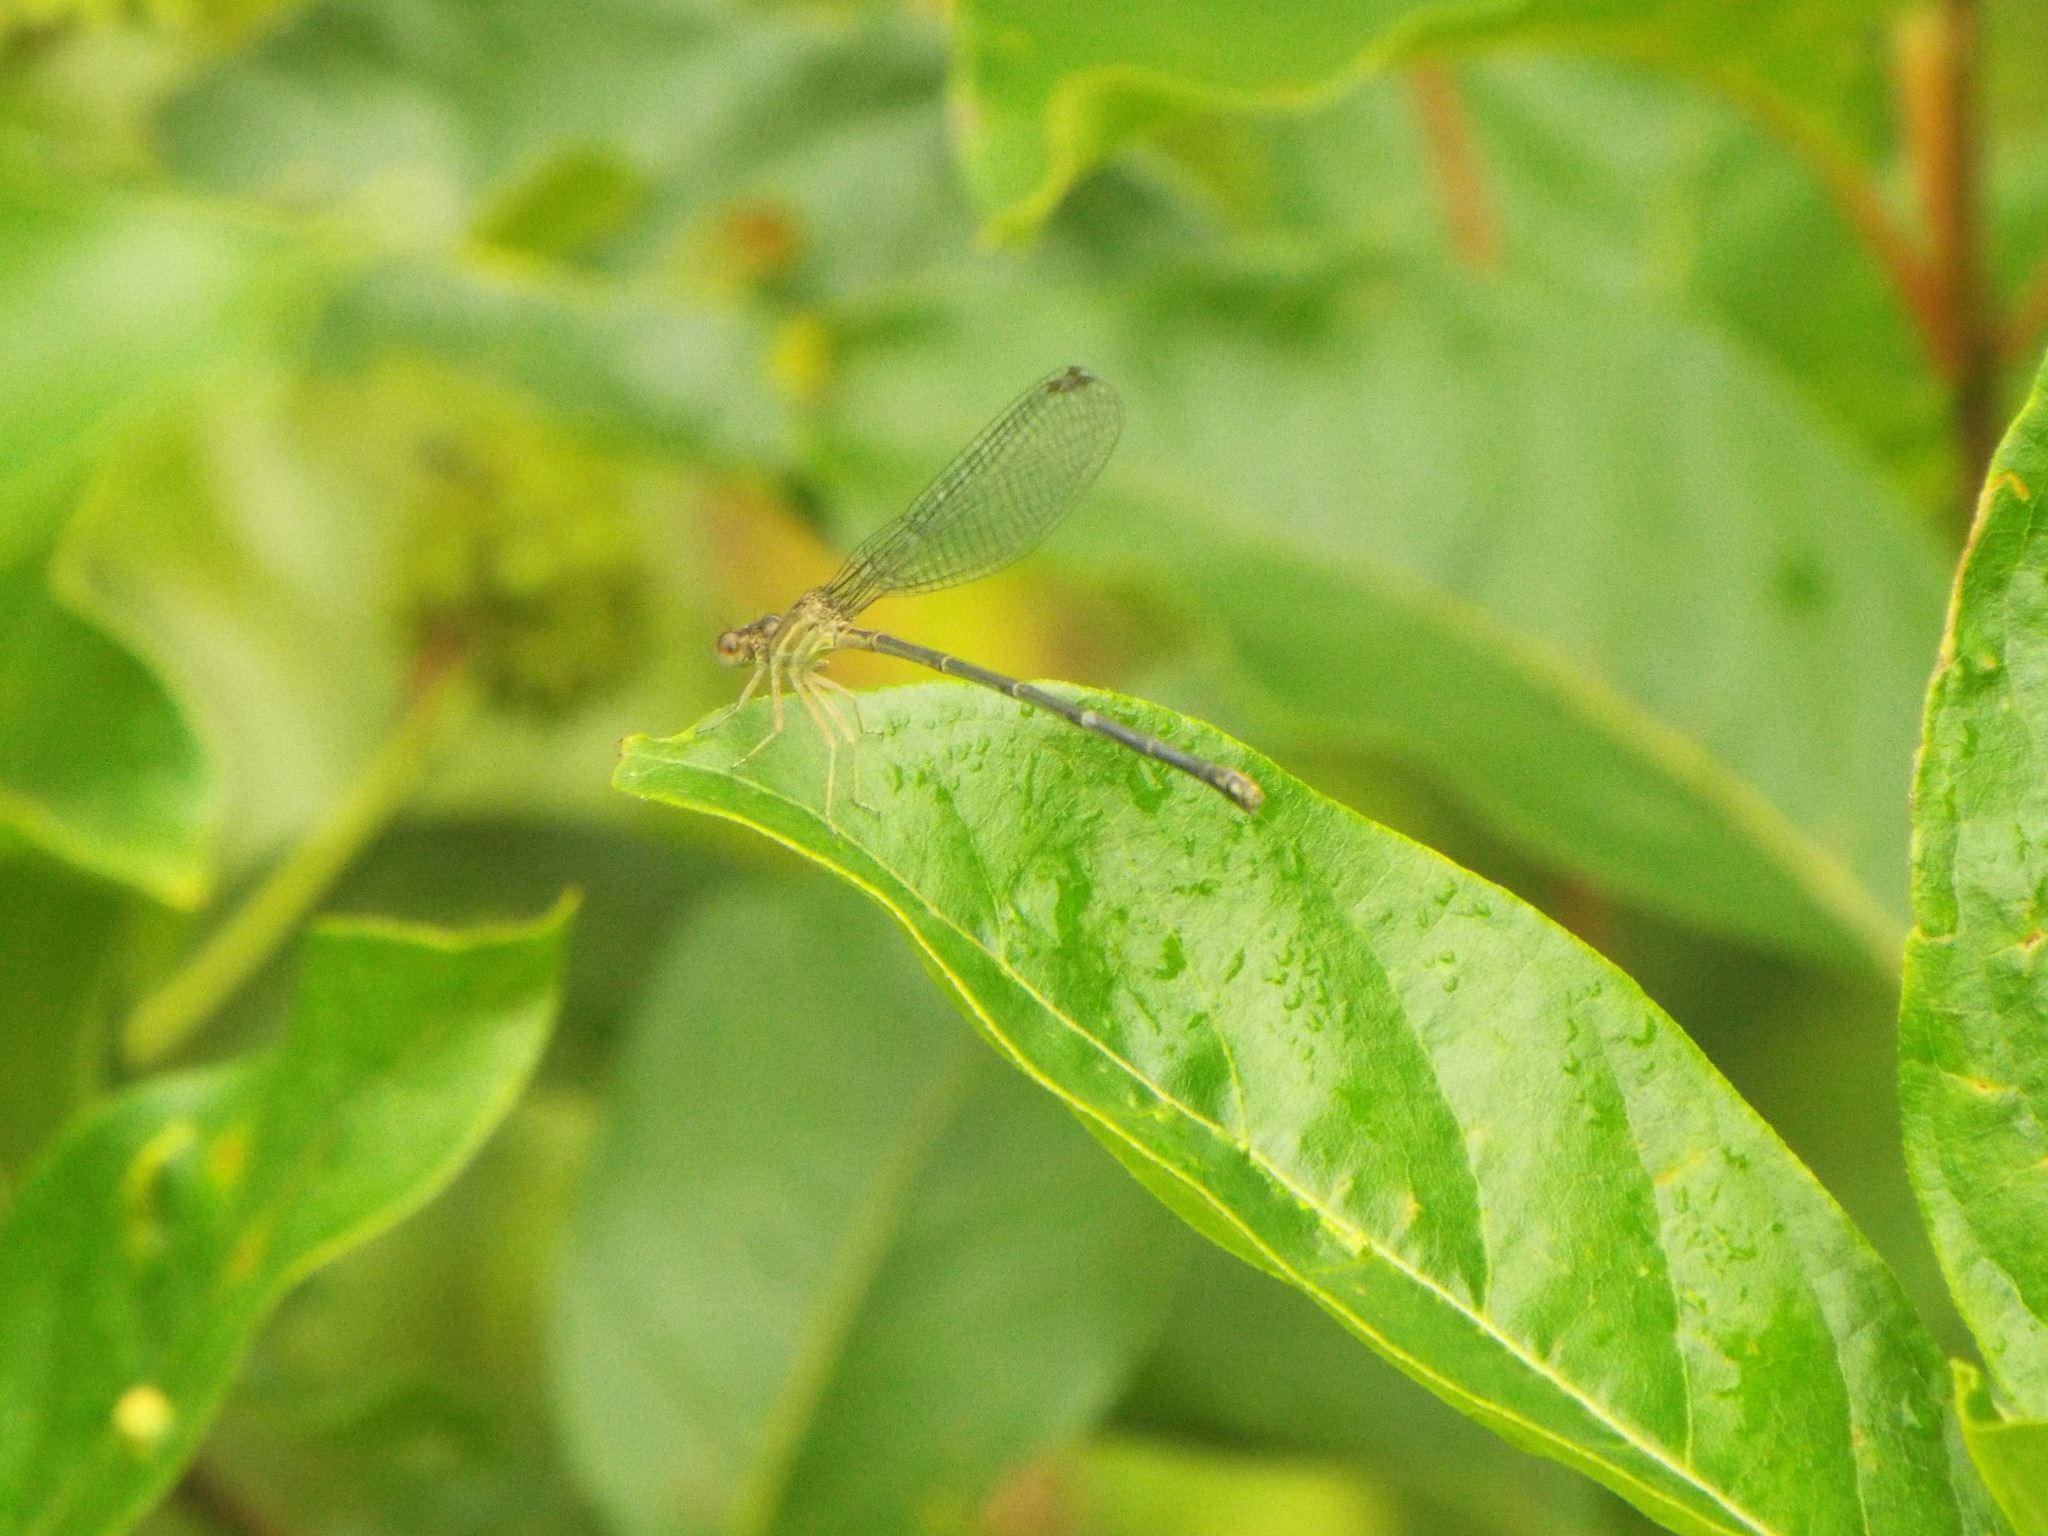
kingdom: Animalia
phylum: Arthropoda
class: Insecta
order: Odonata
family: Coenagrionidae
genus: Argia
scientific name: Argia apicalis
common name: Blue-fronted dancer
